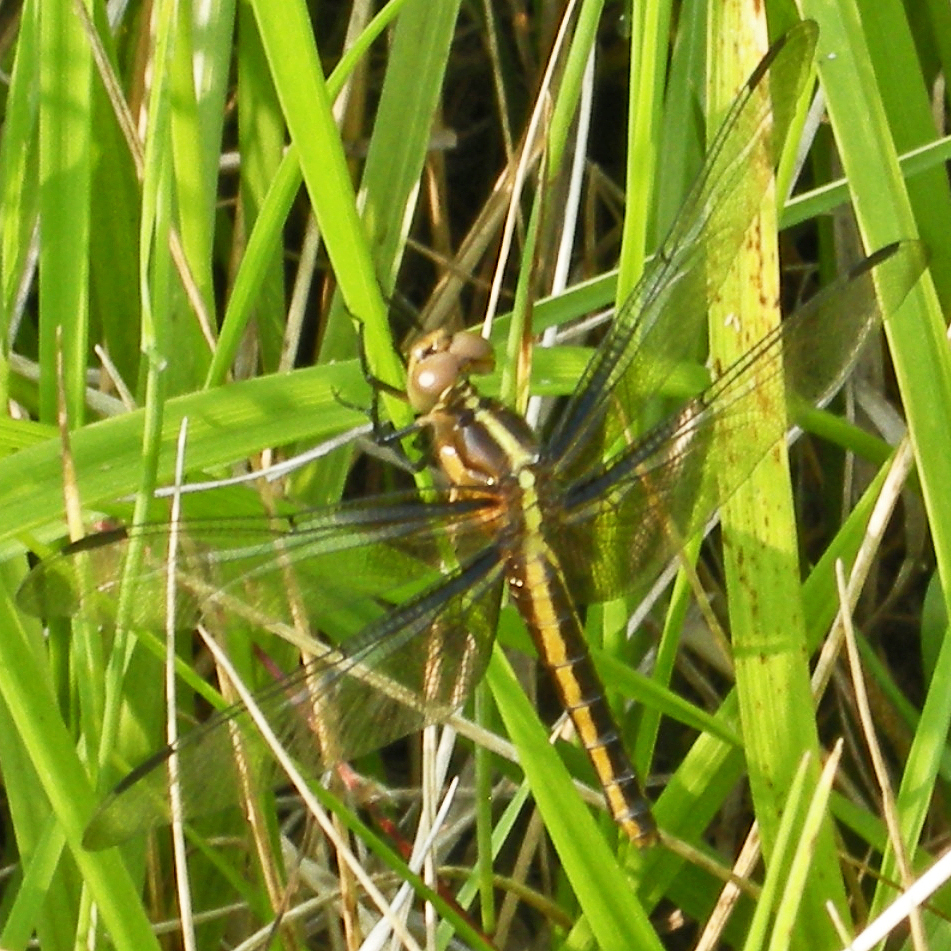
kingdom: Animalia
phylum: Arthropoda
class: Insecta
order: Odonata
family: Libellulidae
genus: Libellula
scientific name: Libellula luctuosa
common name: Widow skimmer
